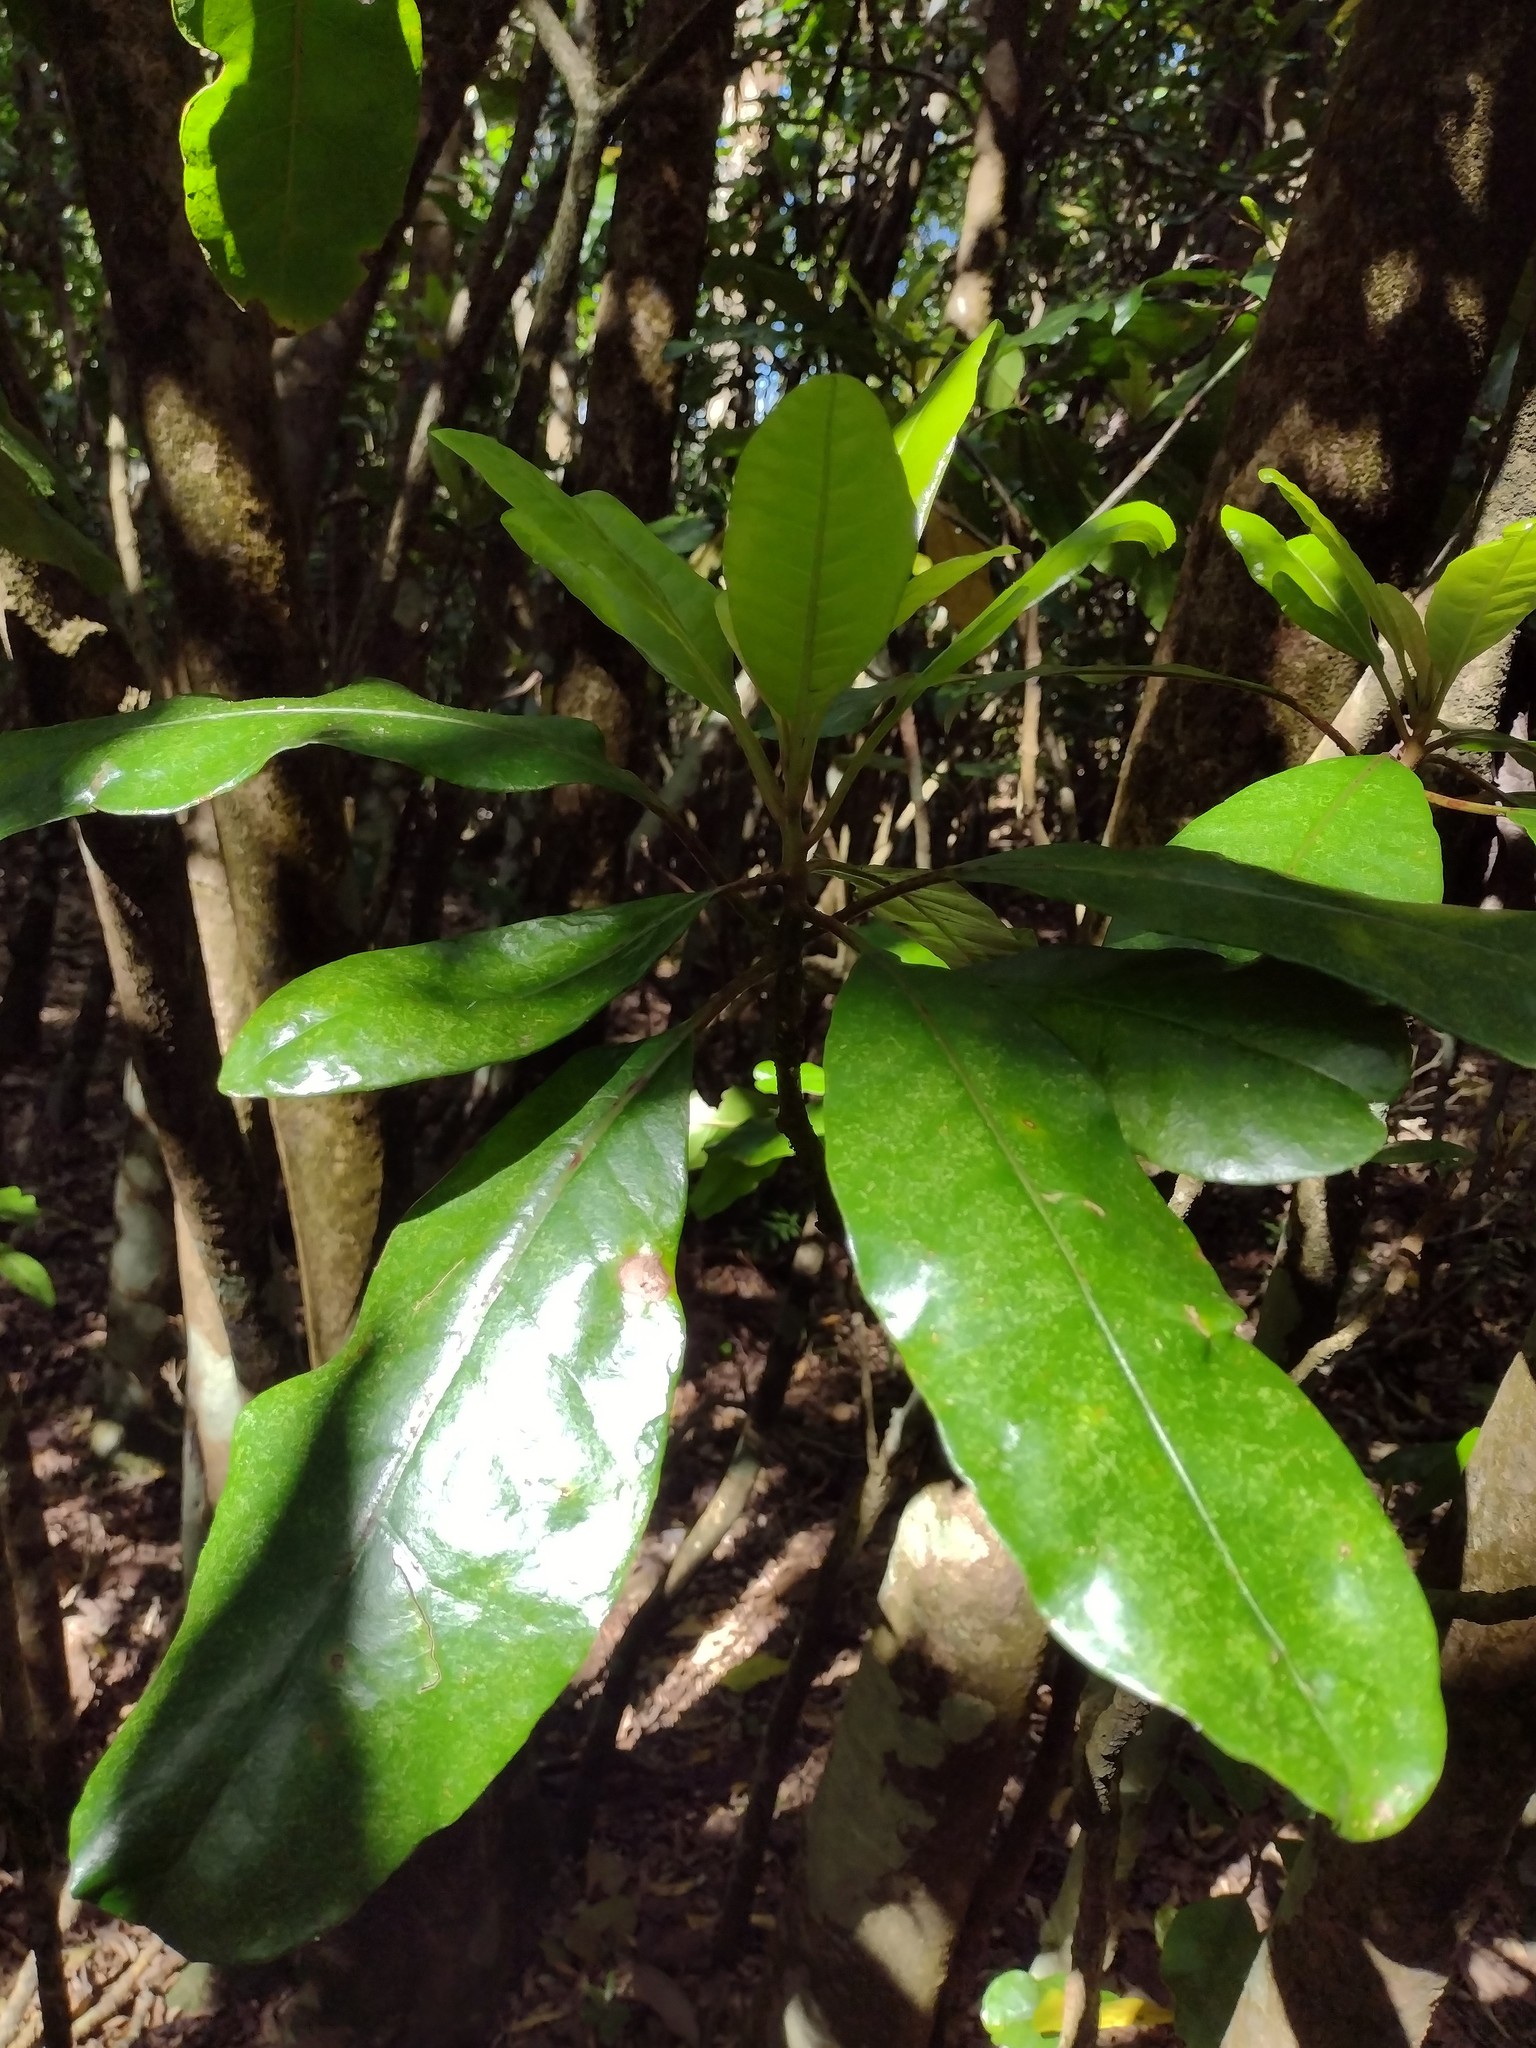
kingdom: Plantae
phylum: Tracheophyta
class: Magnoliopsida
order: Caryophyllales
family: Nyctaginaceae
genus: Ceodes
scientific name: Ceodes brunoniana
